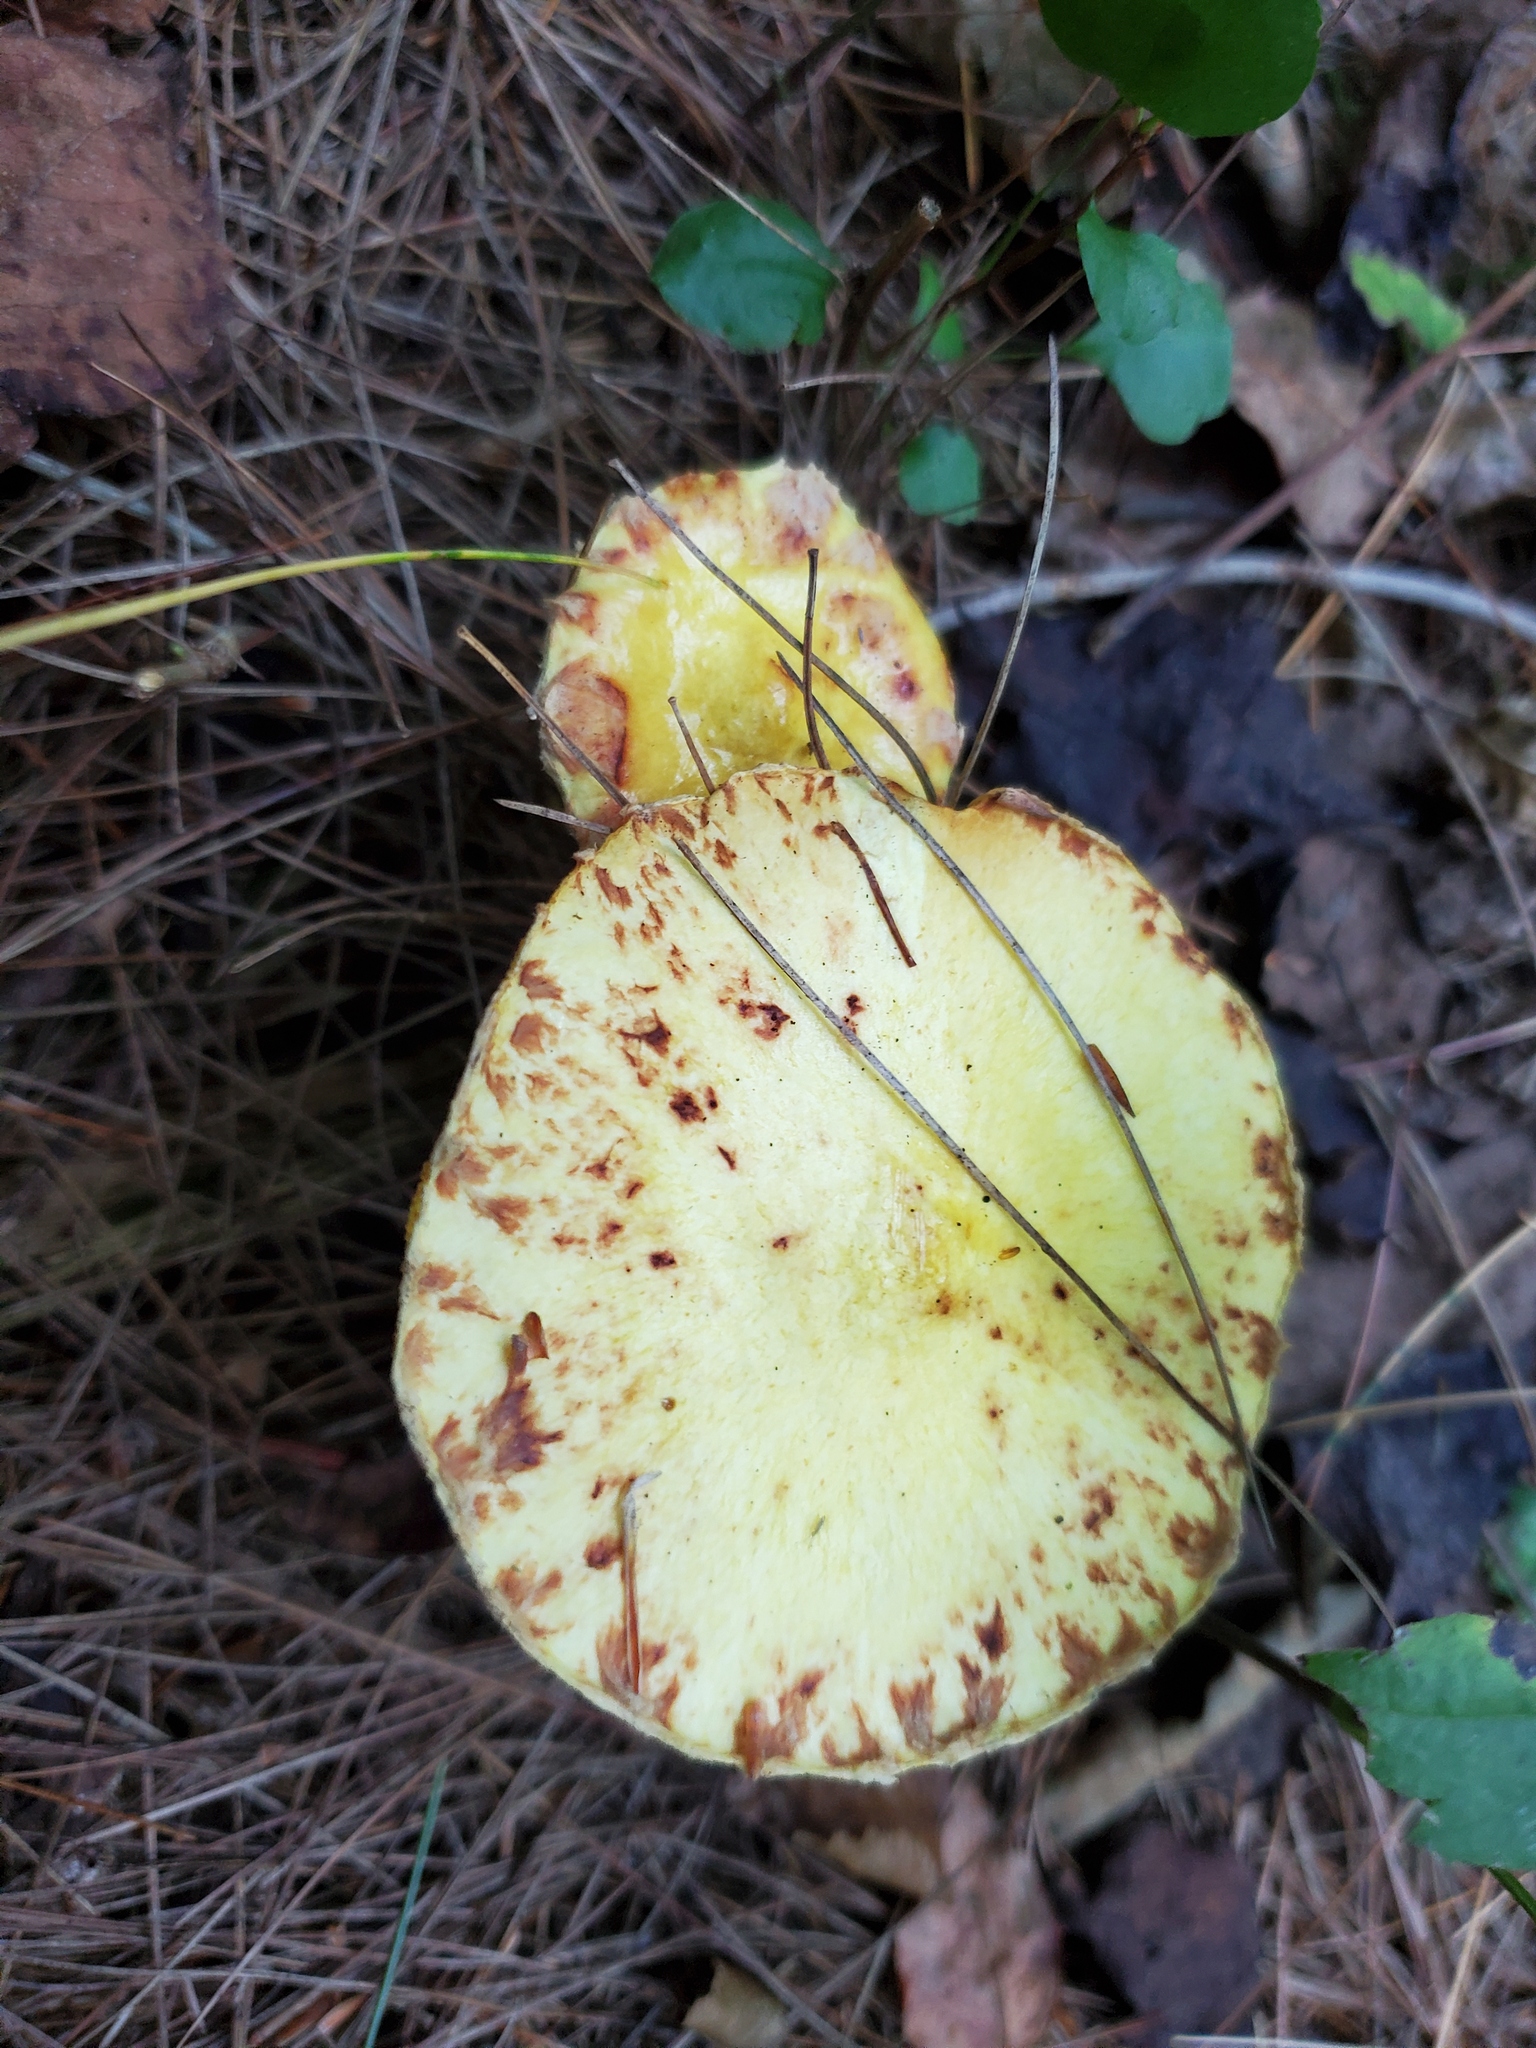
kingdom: Fungi
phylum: Basidiomycota
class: Agaricomycetes
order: Boletales
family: Suillaceae
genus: Suillus
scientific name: Suillus americanus
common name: Chicken fat mushroom
